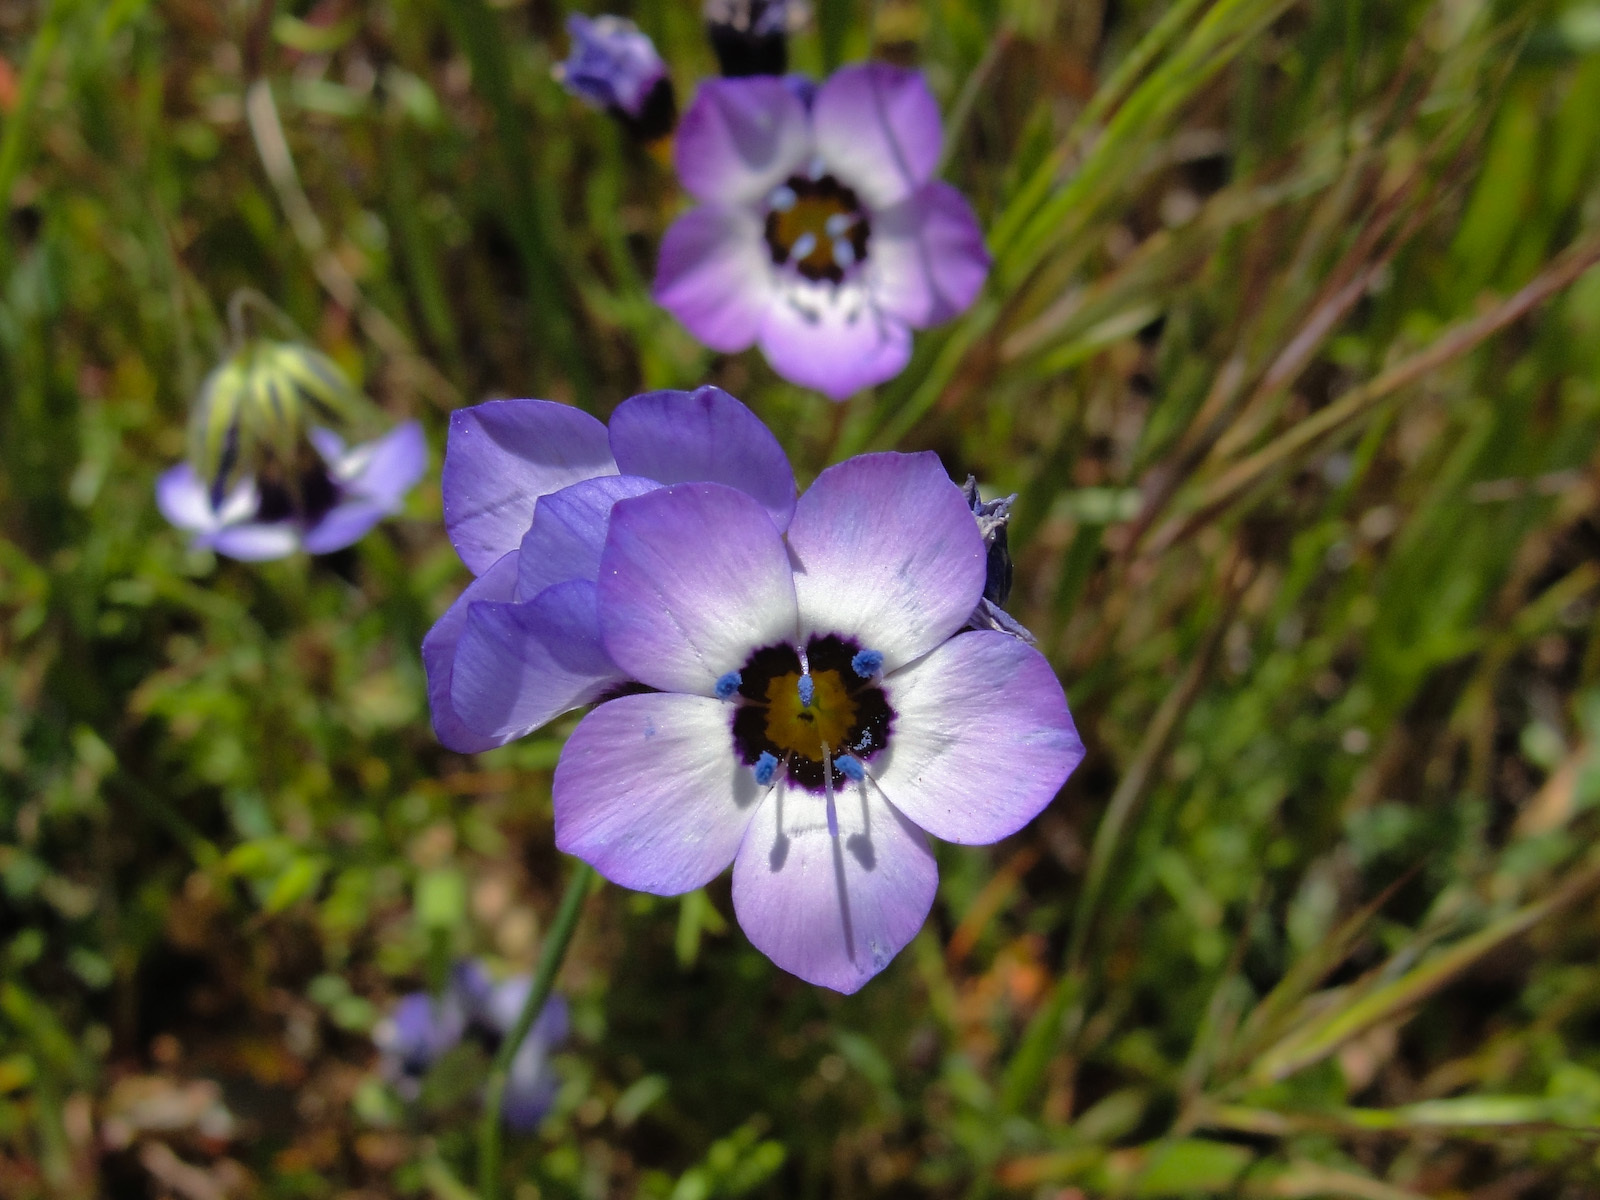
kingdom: Plantae
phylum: Tracheophyta
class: Magnoliopsida
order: Ericales
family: Polemoniaceae
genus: Gilia
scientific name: Gilia tricolor
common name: Bird's-eyes
